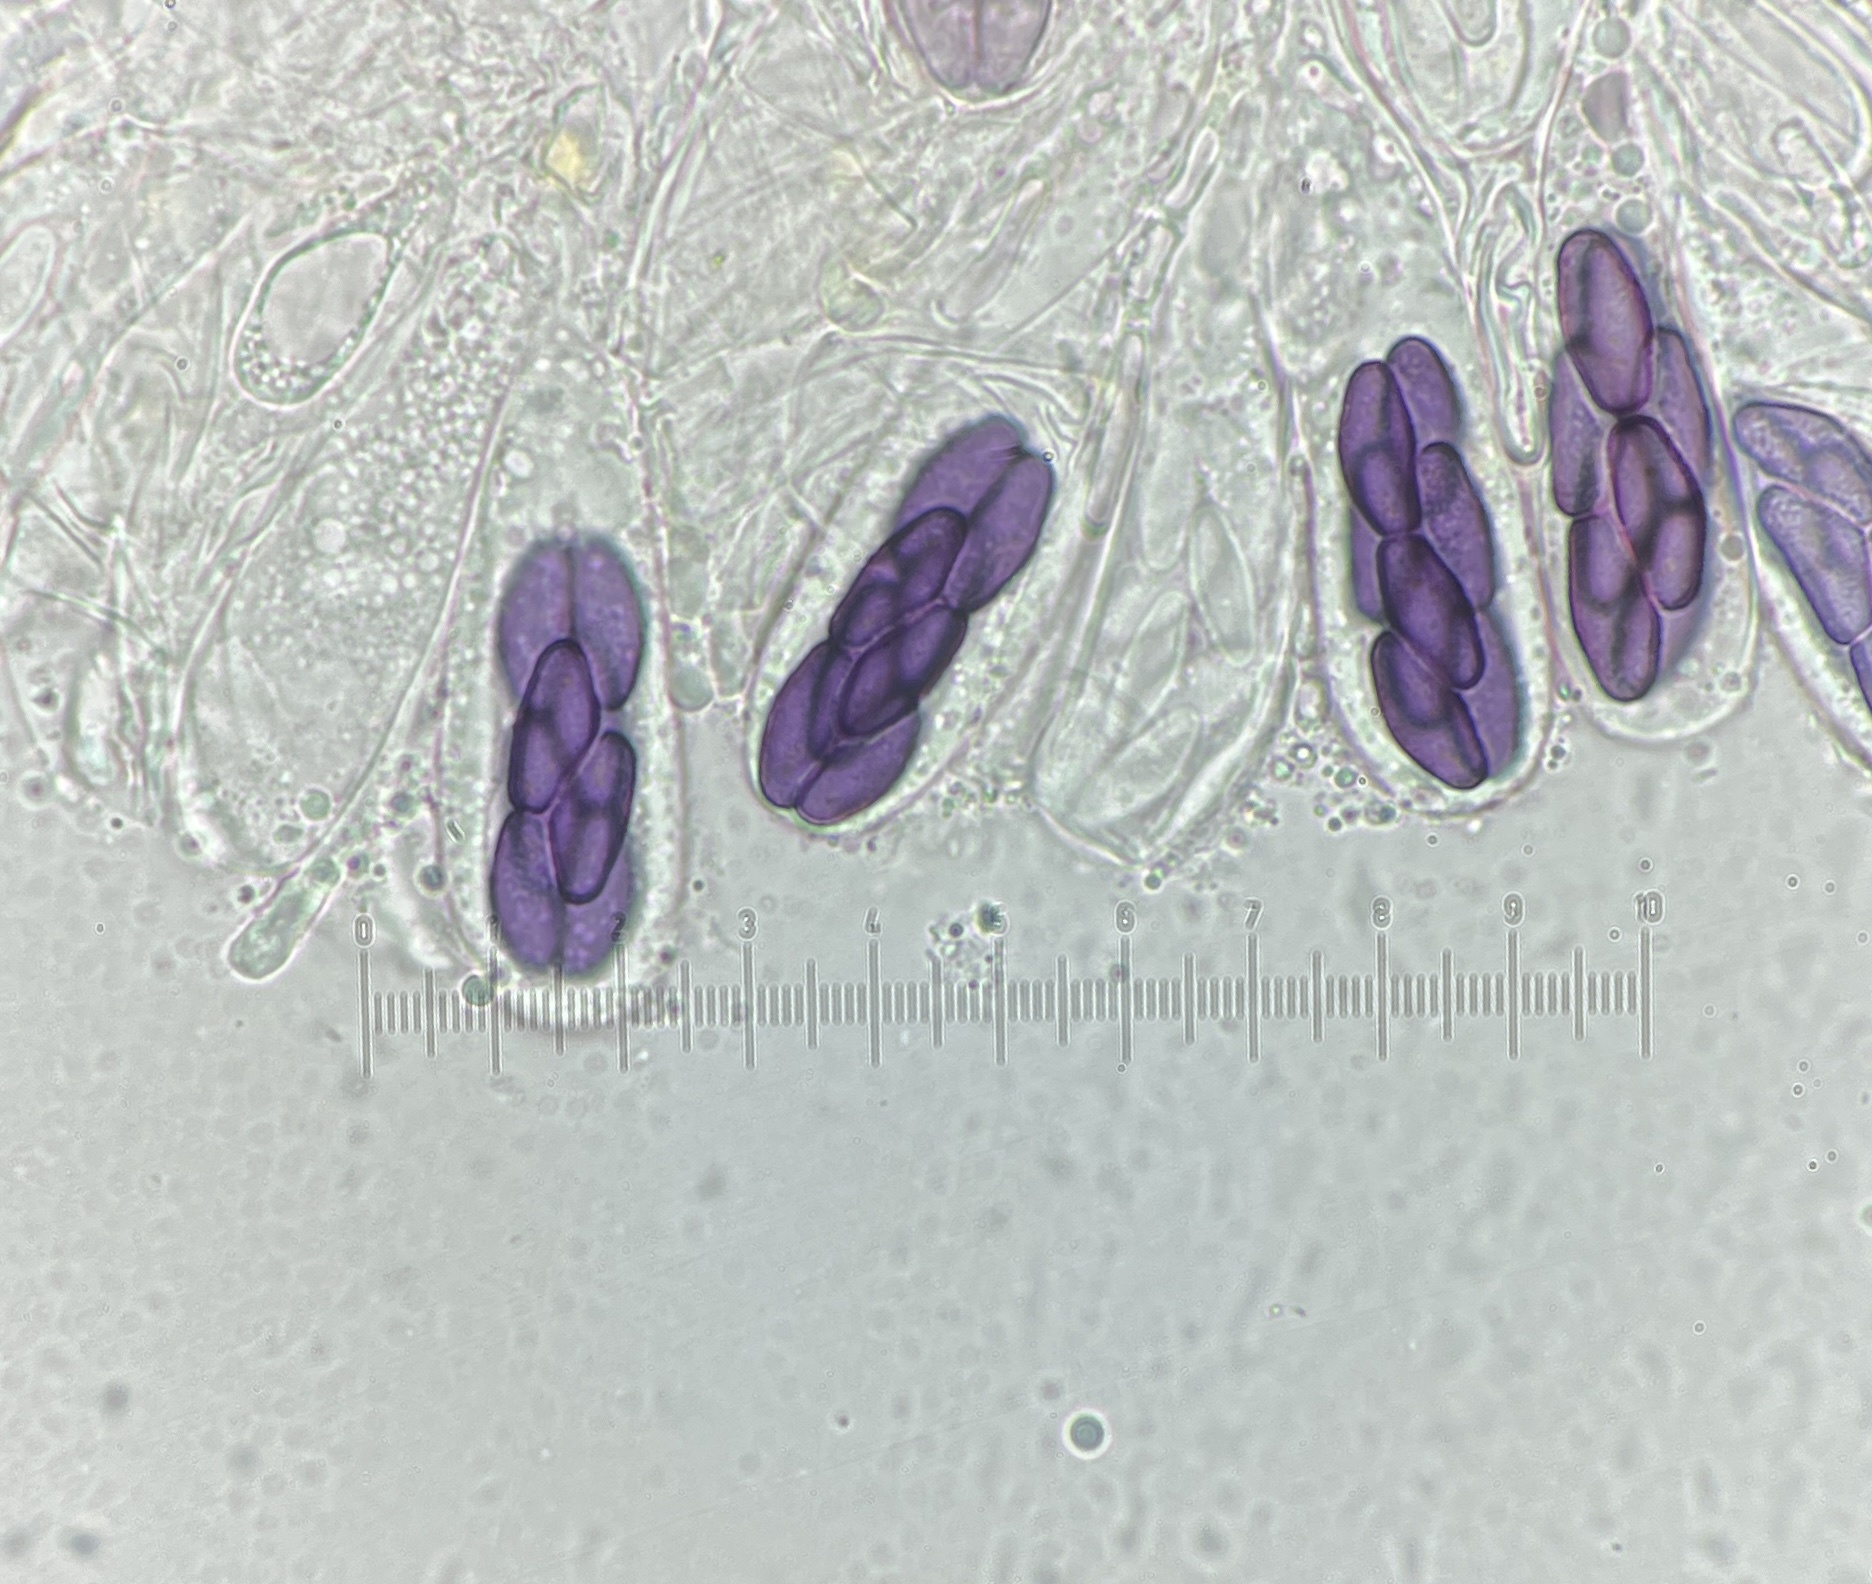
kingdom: Fungi
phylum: Ascomycota
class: Pezizomycetes
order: Pezizales
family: Ascobolaceae
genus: Saccobolus
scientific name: Saccobolus depauperatus
